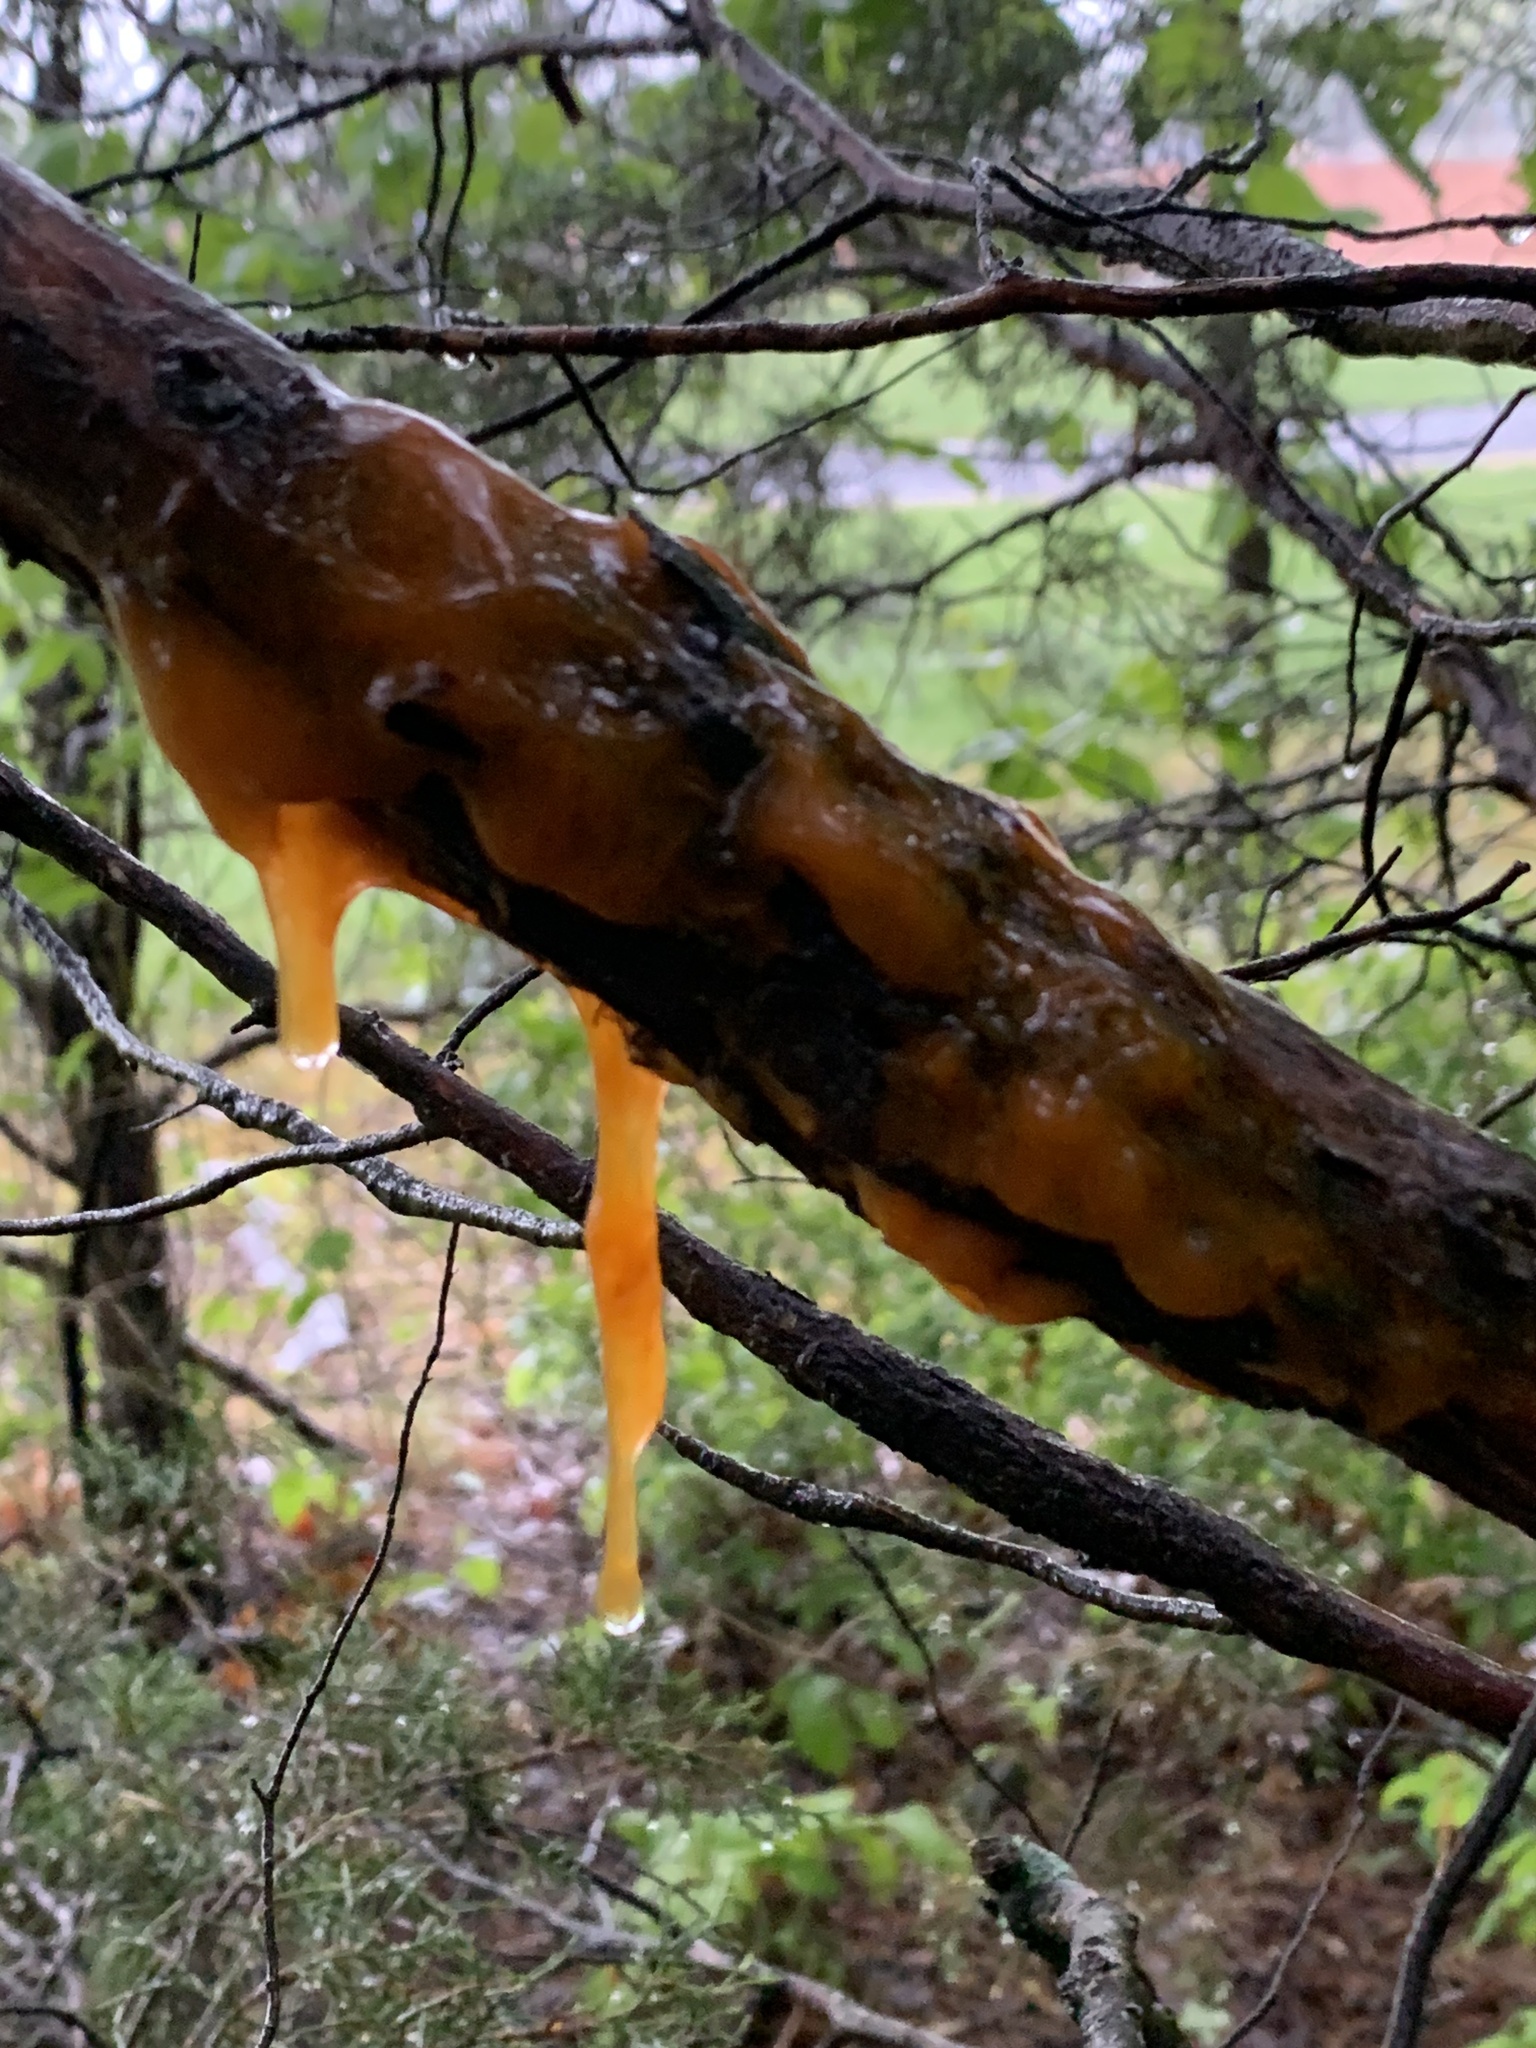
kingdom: Fungi
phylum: Basidiomycota
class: Pucciniomycetes
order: Pucciniales
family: Gymnosporangiaceae
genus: Gymnosporangium
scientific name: Gymnosporangium juniperi-virginianae
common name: Juniper-apple rust
